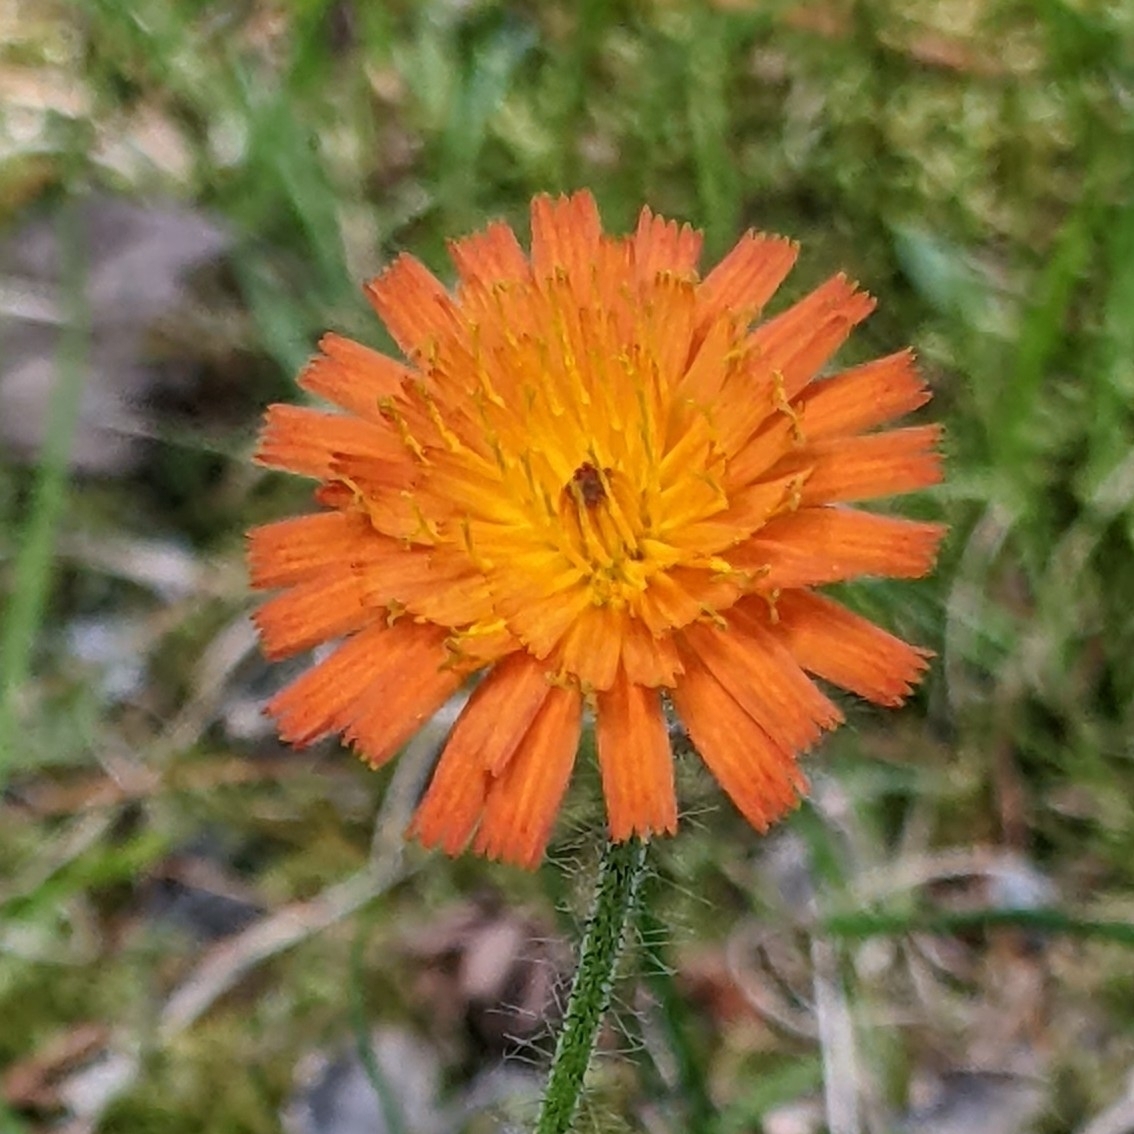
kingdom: Plantae
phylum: Tracheophyta
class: Magnoliopsida
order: Asterales
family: Asteraceae
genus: Pilosella
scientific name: Pilosella aurantiaca
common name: Fox-and-cubs
